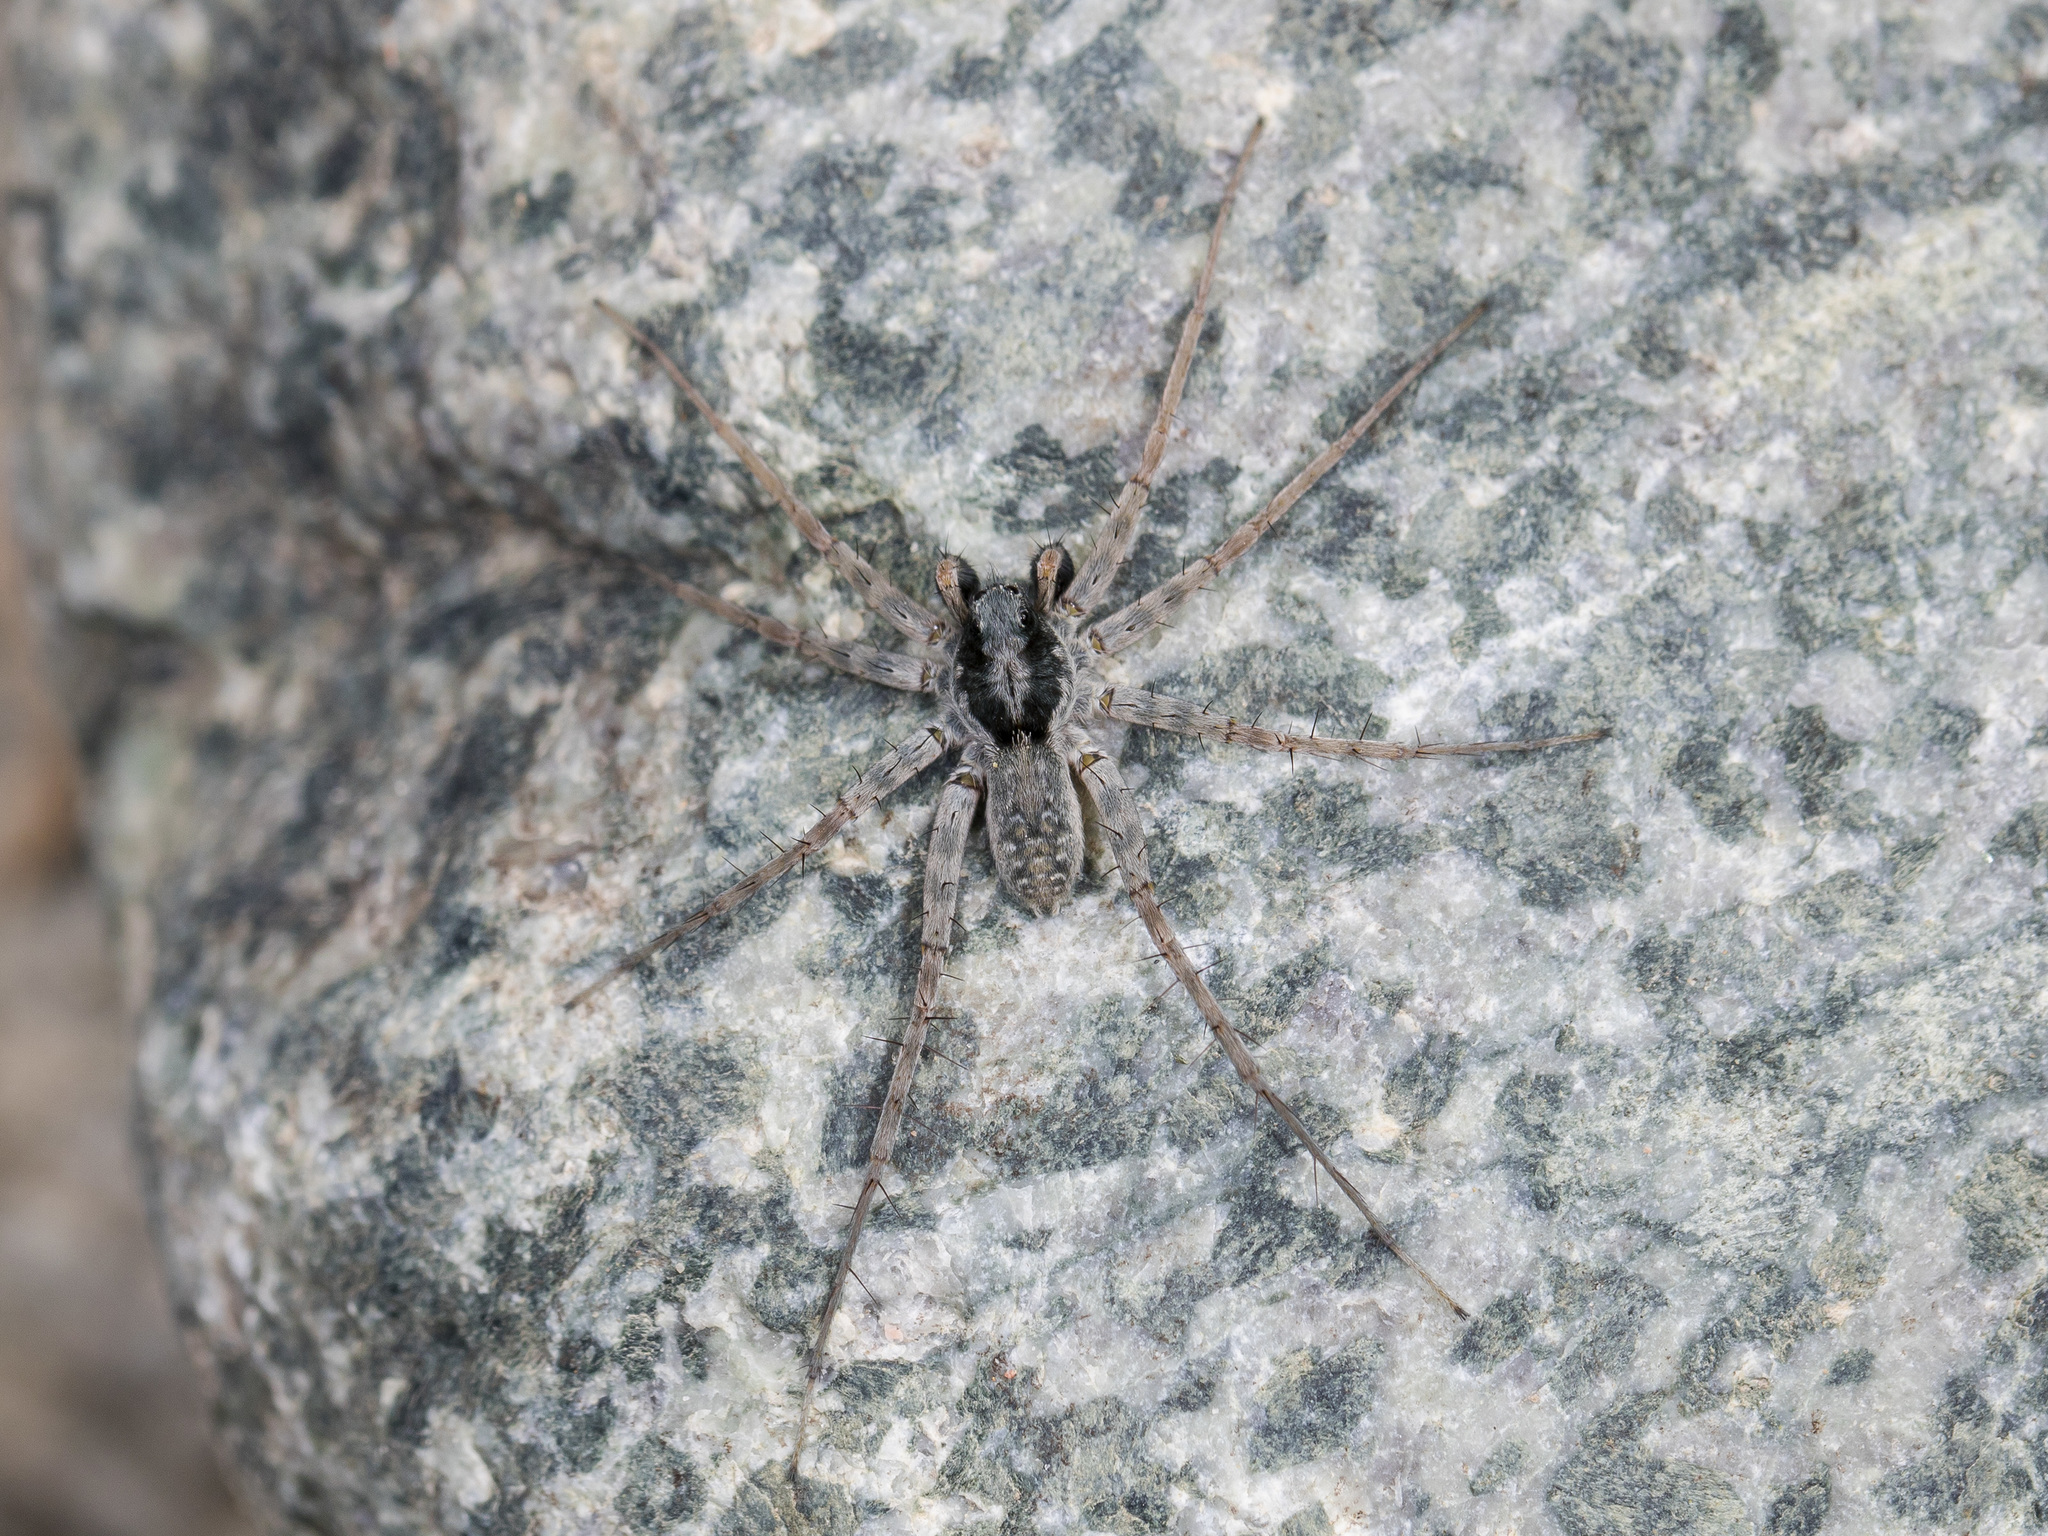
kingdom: Animalia
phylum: Arthropoda
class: Arachnida
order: Araneae
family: Lycosidae
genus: Pardosa
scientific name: Pardosa falcata
